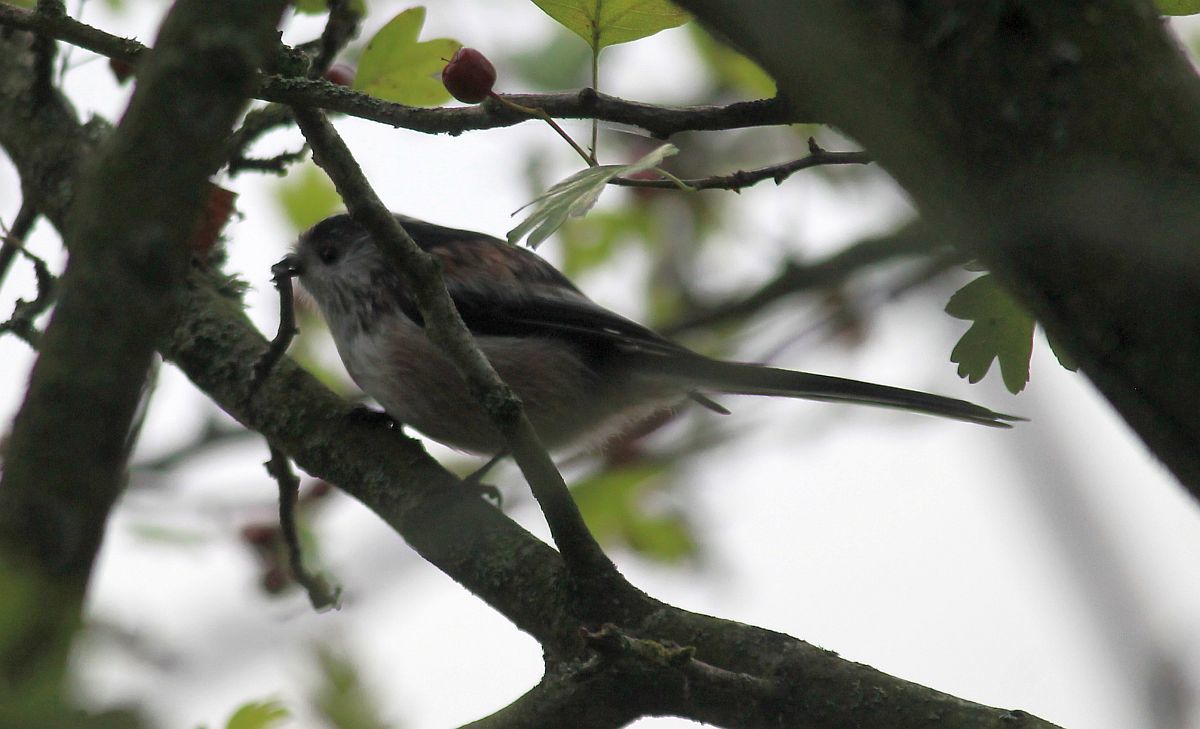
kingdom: Animalia
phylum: Chordata
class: Aves
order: Passeriformes
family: Aegithalidae
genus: Aegithalos
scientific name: Aegithalos caudatus
